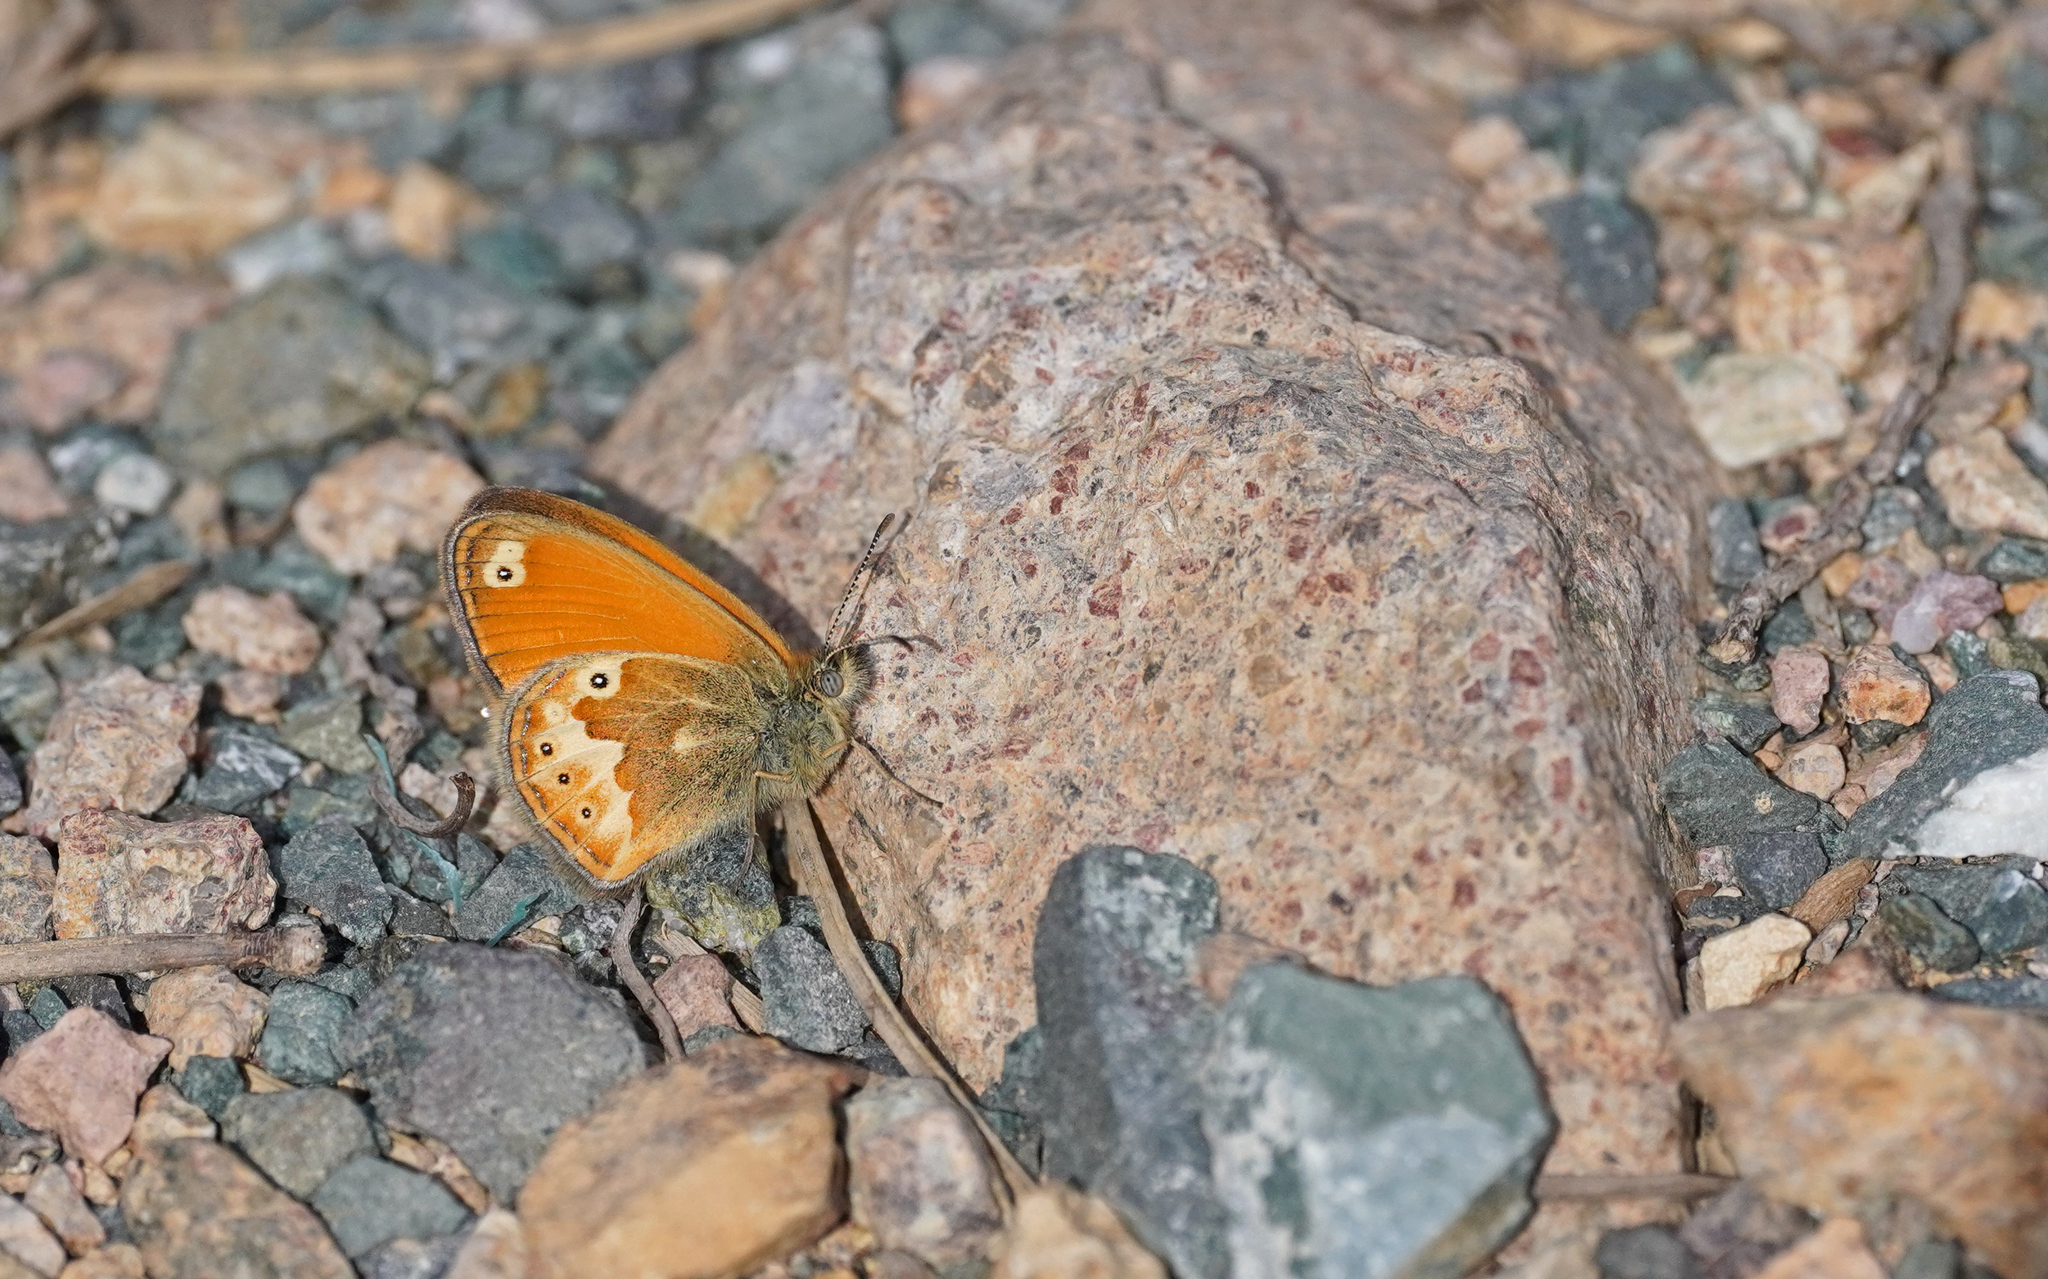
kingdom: Animalia
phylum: Arthropoda
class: Insecta
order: Lepidoptera
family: Nymphalidae
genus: Coenonympha
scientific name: Coenonympha corinna
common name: Corsican heath
